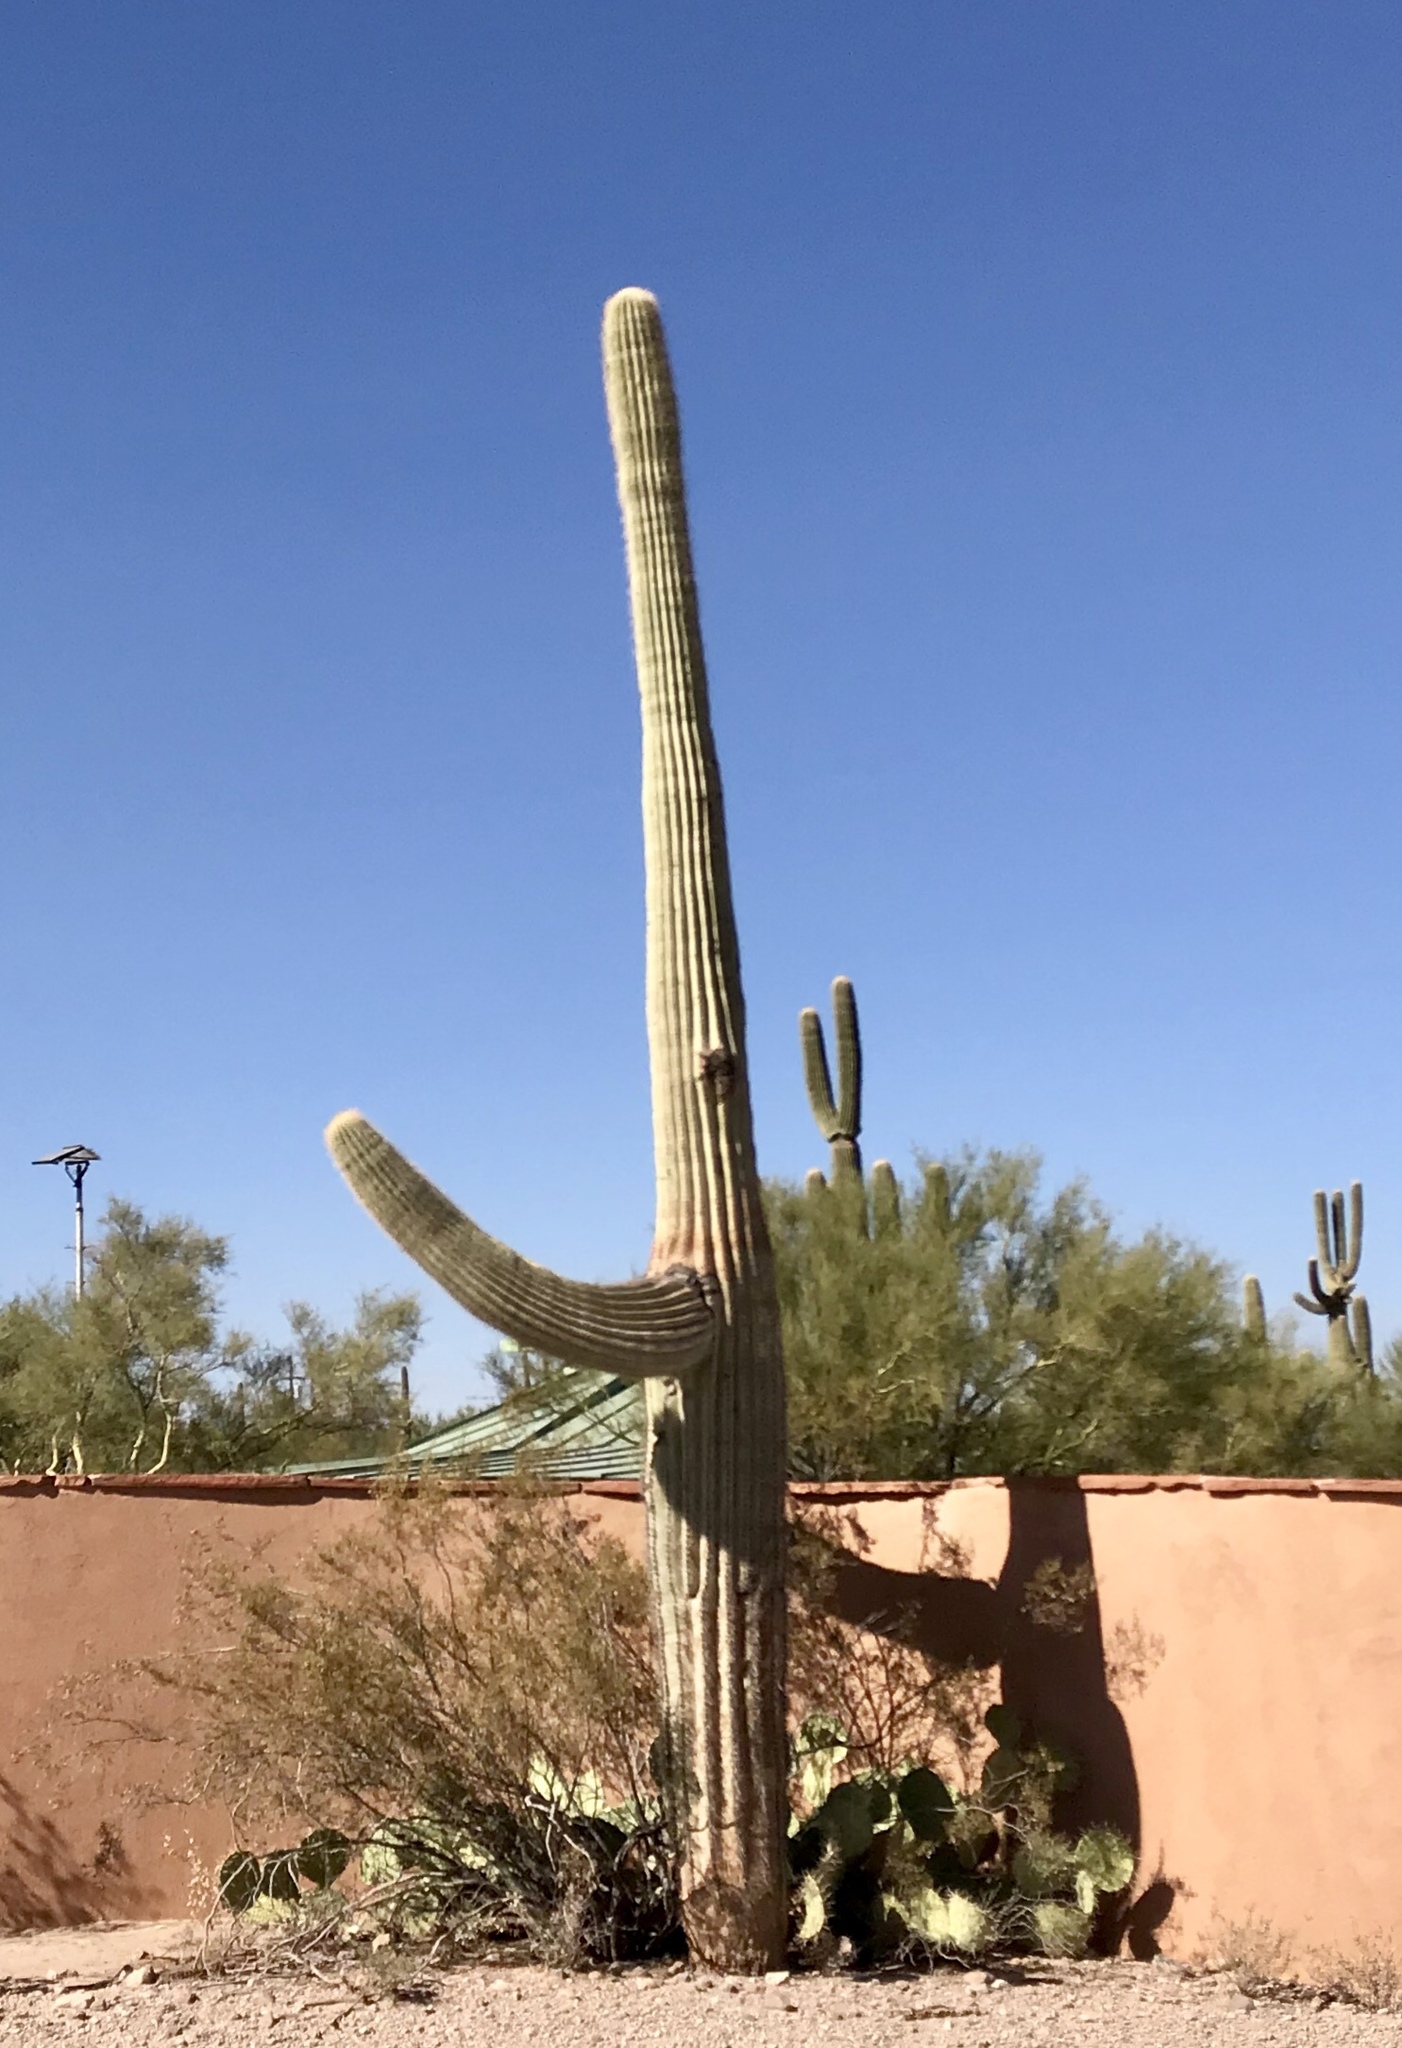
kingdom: Plantae
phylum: Tracheophyta
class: Magnoliopsida
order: Caryophyllales
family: Cactaceae
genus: Carnegiea
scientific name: Carnegiea gigantea
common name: Saguaro
